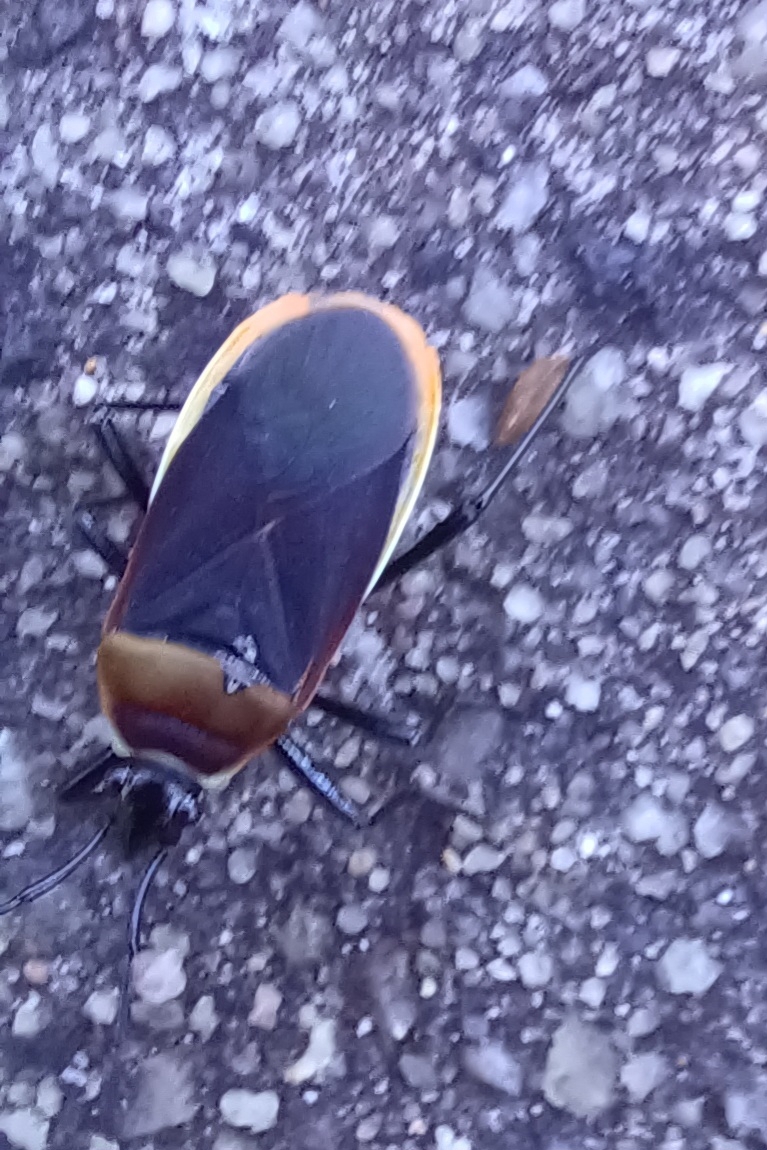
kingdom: Animalia
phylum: Arthropoda
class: Insecta
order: Hemiptera
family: Pyrrhocoridae
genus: Dindymus
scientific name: Dindymus
